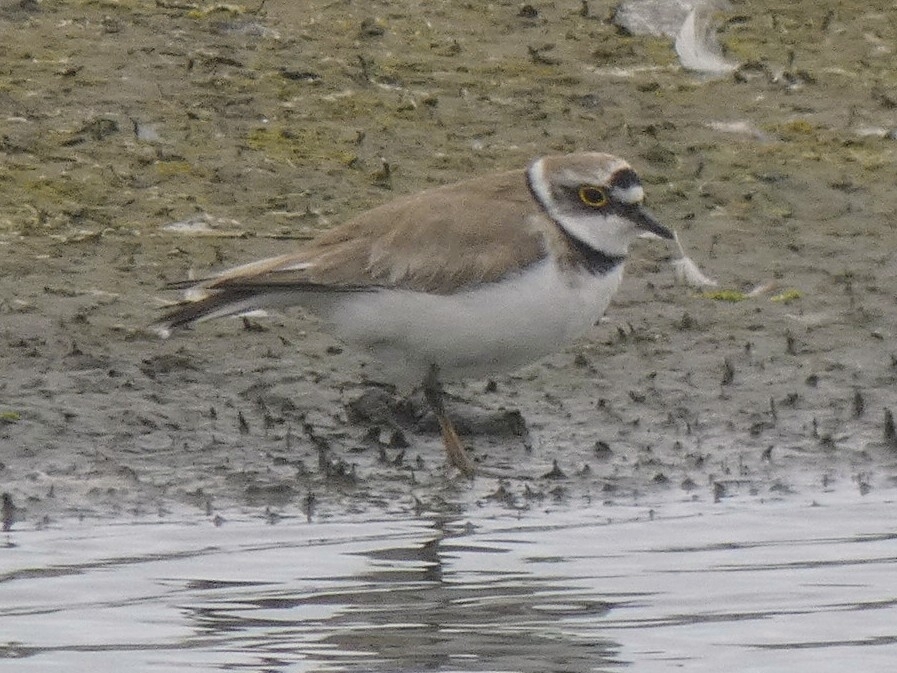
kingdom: Animalia
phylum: Chordata
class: Aves
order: Charadriiformes
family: Charadriidae
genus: Charadrius
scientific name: Charadrius dubius
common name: Little ringed plover
